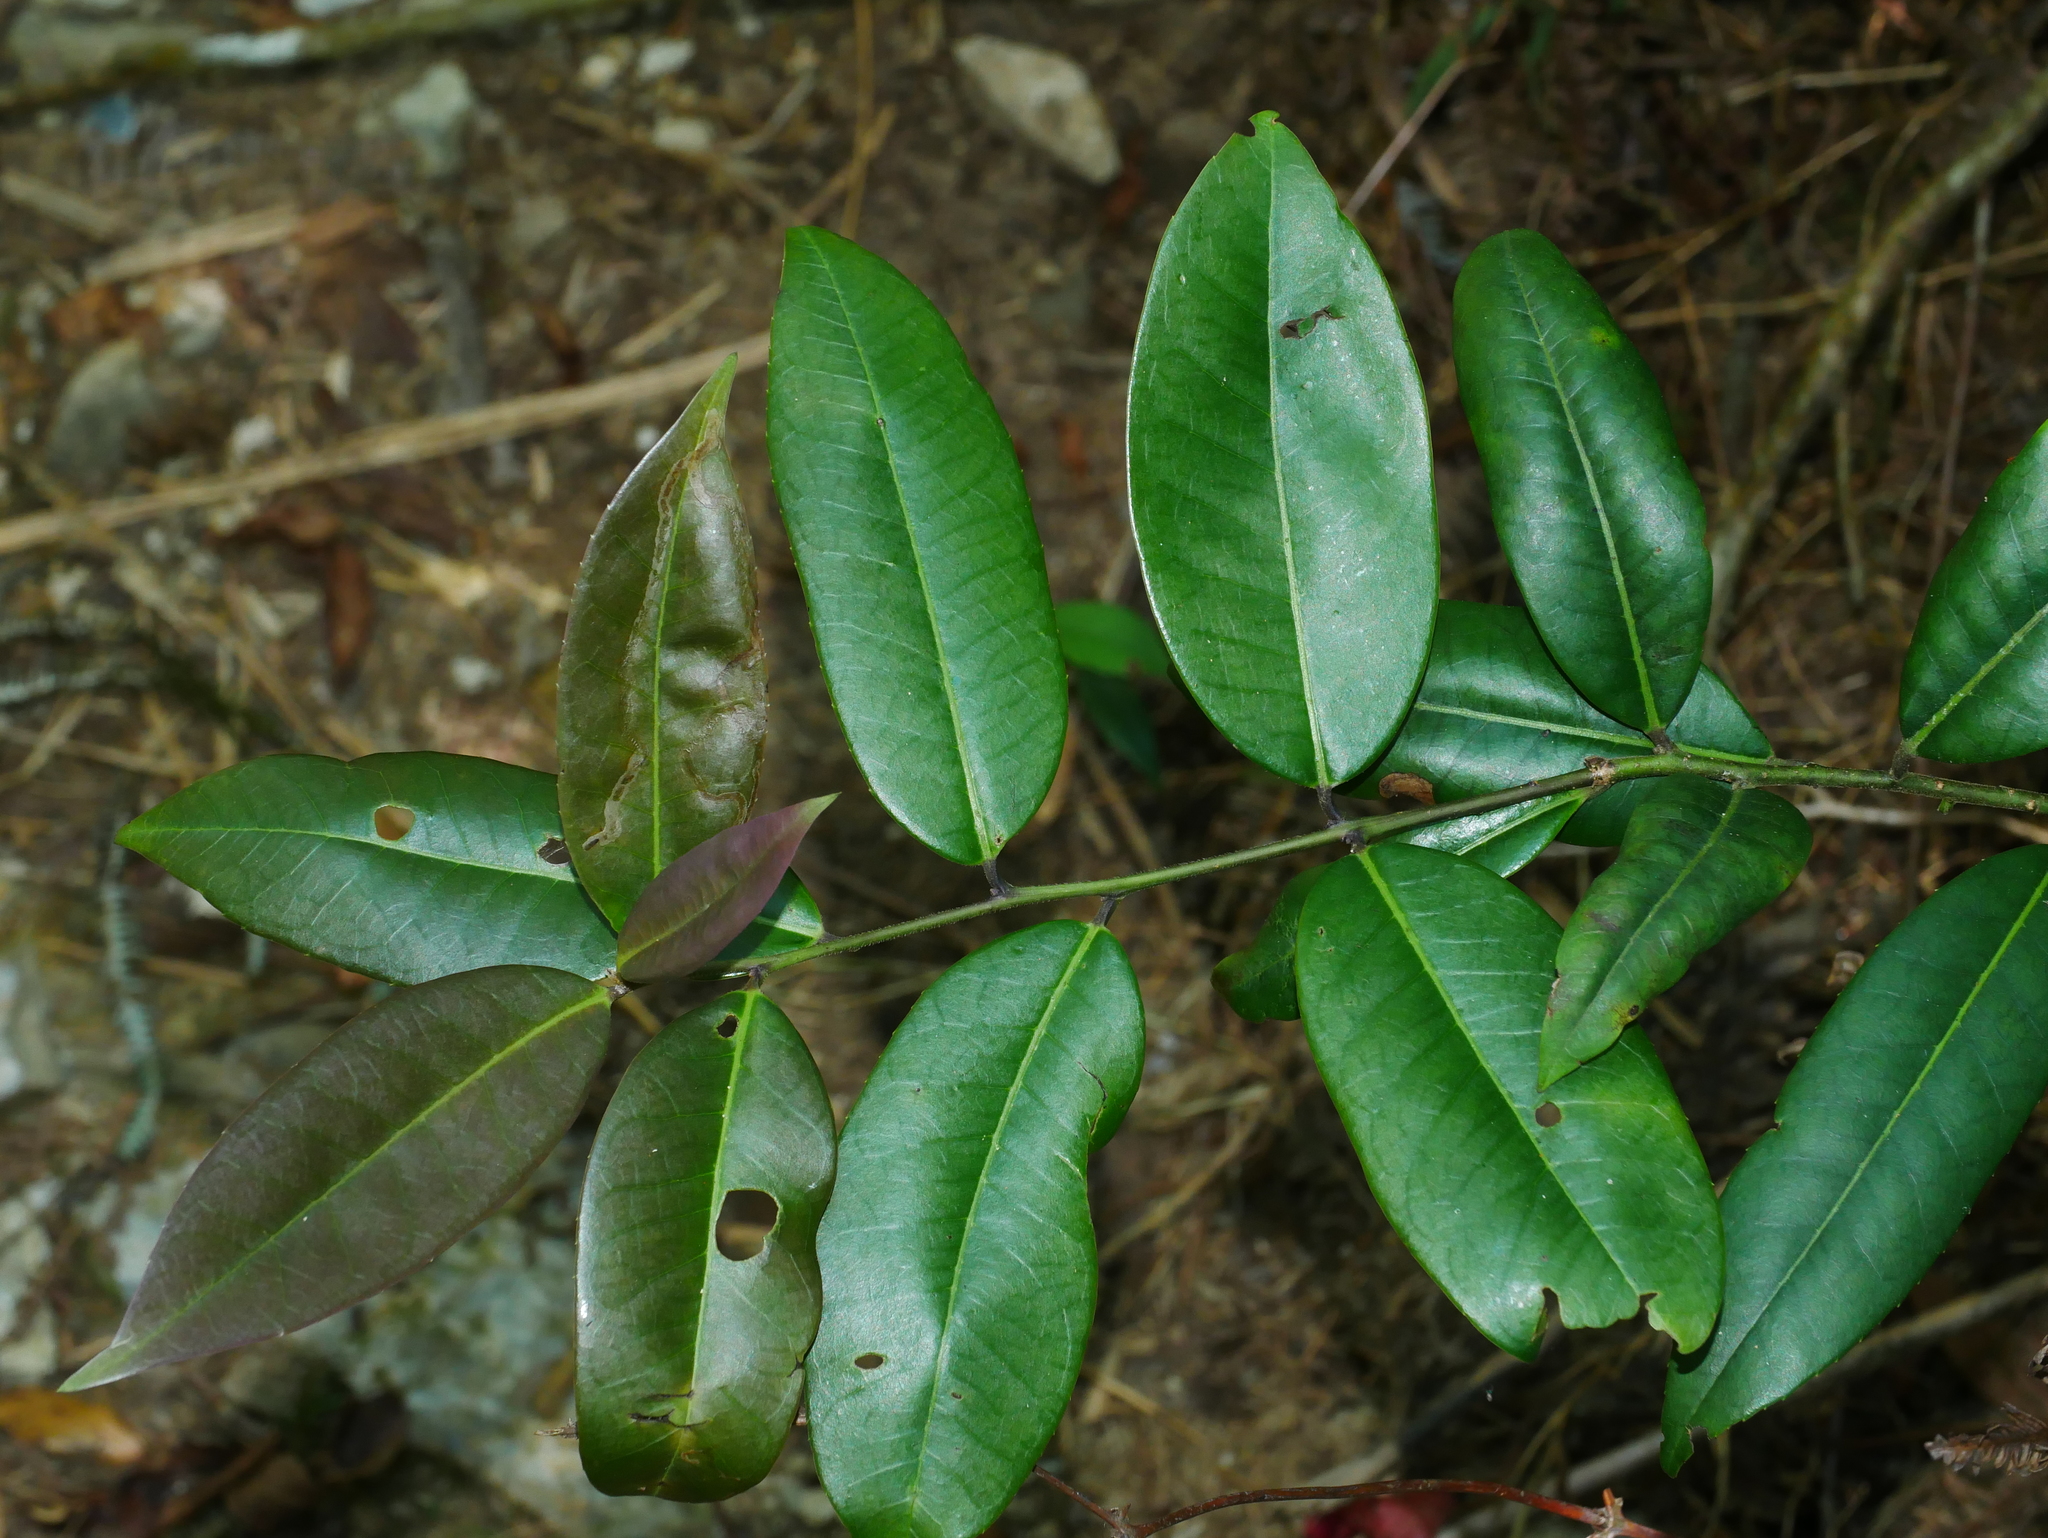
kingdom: Plantae
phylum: Tracheophyta
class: Magnoliopsida
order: Aquifoliales
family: Aquifoliaceae
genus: Ilex
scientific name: Ilex lonicerifolia
